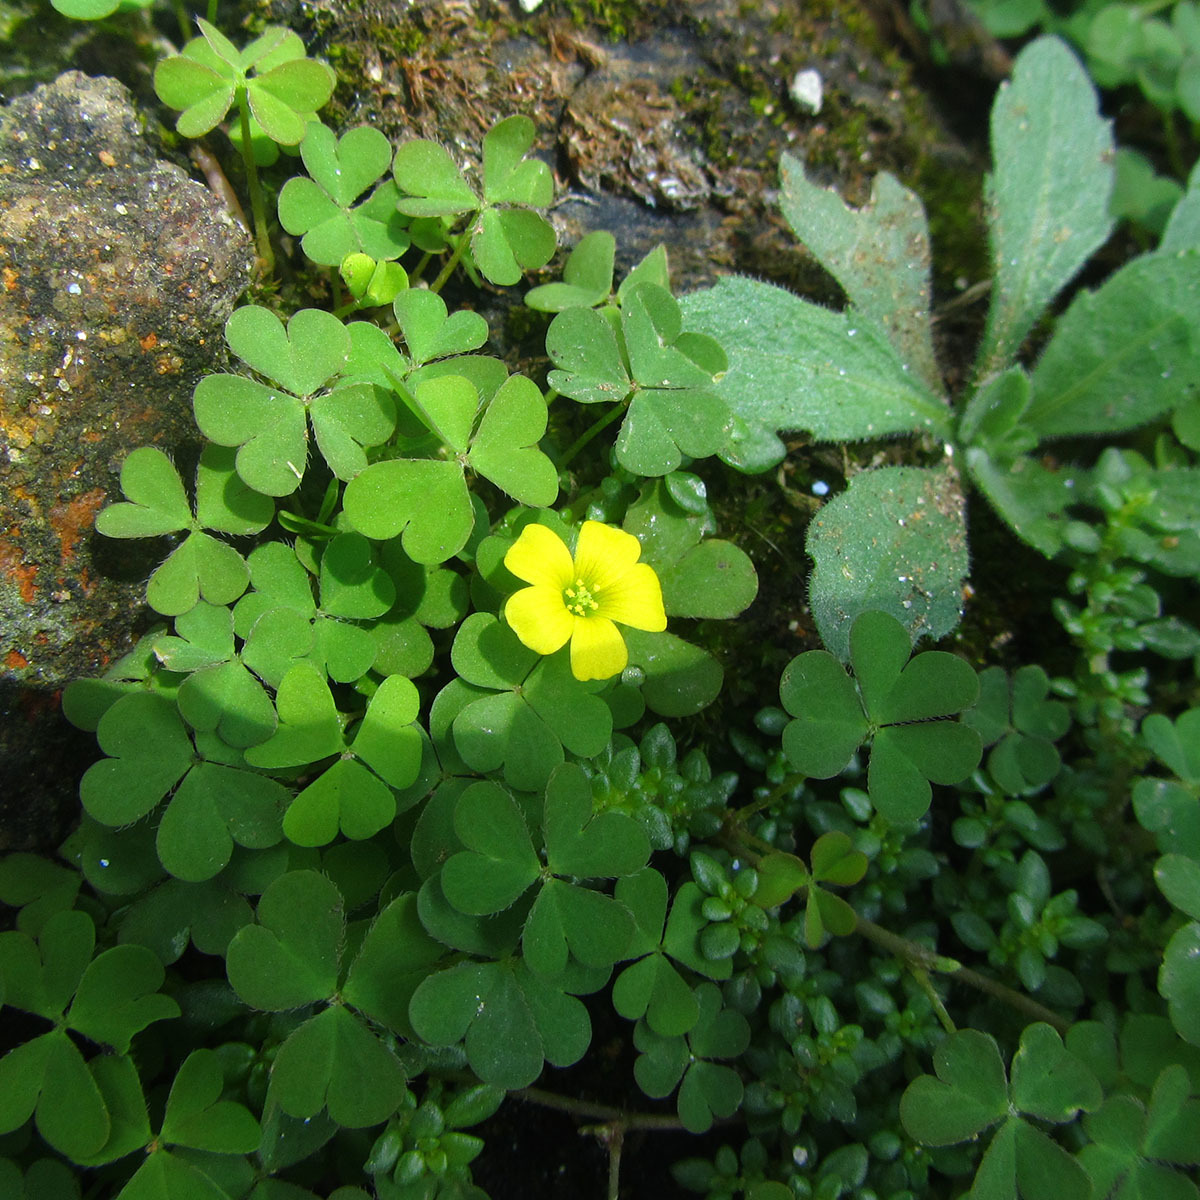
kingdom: Plantae
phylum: Tracheophyta
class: Magnoliopsida
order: Oxalidales
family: Oxalidaceae
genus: Oxalis
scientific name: Oxalis corniculata
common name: Procumbent yellow-sorrel
